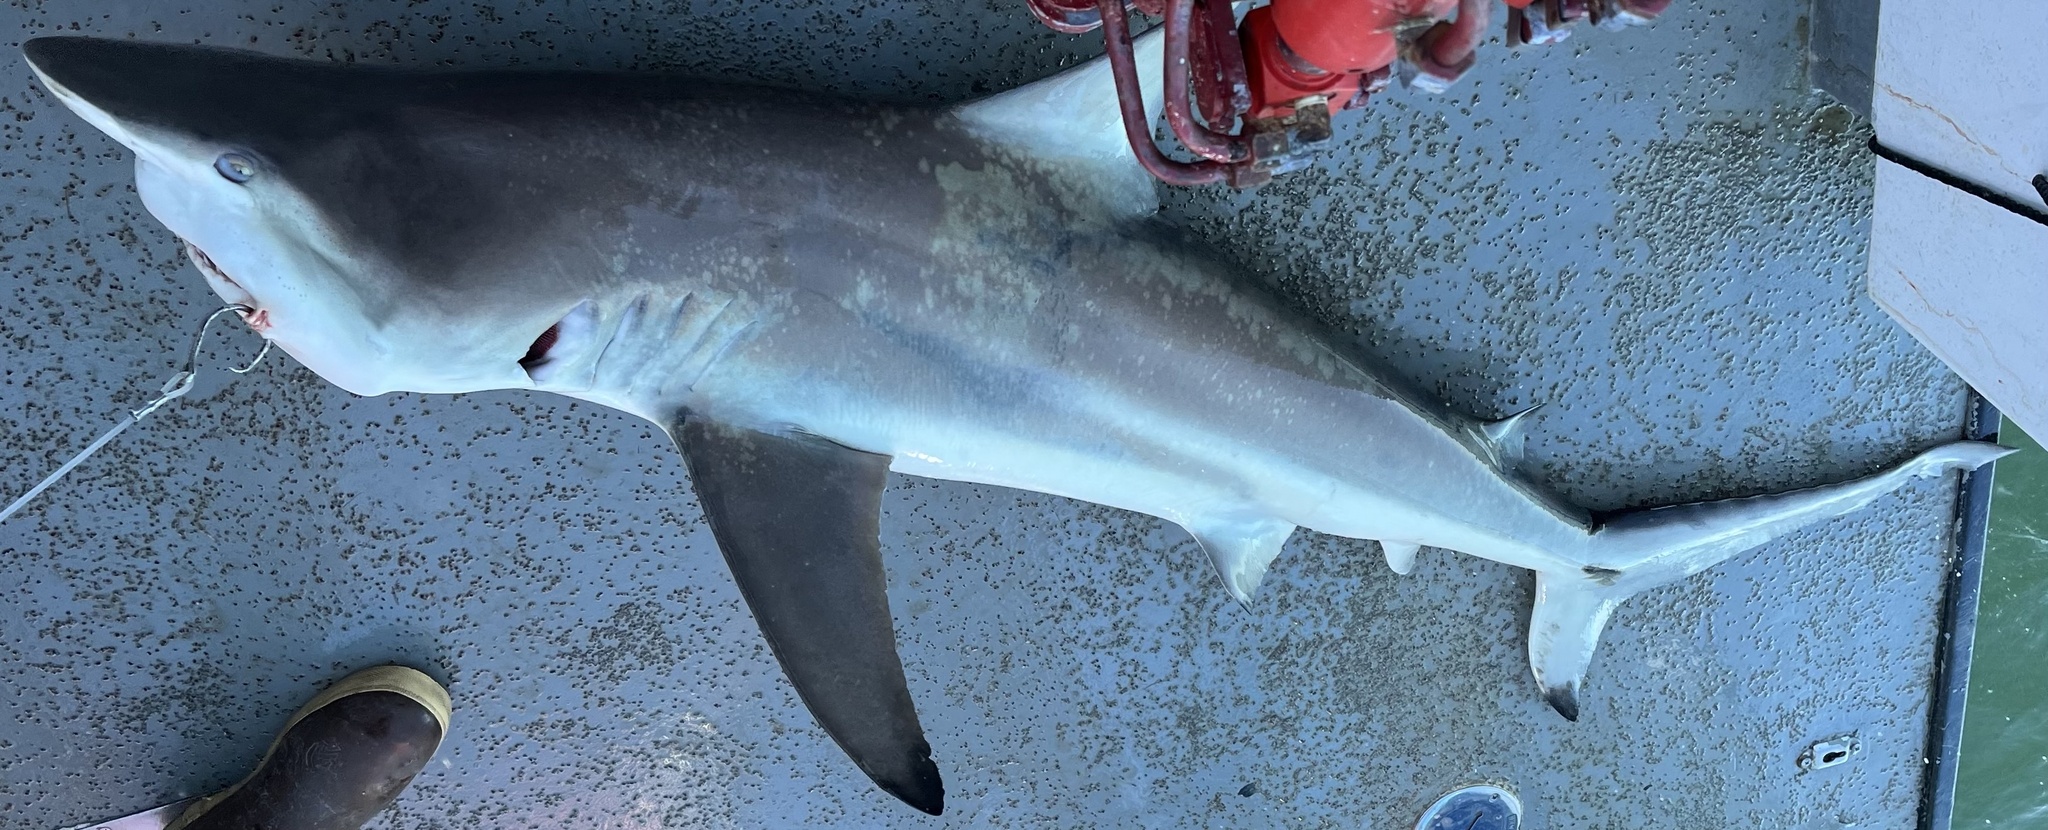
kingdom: Animalia
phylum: Chordata
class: Elasmobranchii
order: Carcharhiniformes
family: Carcharhinidae
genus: Carcharhinus
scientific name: Carcharhinus limbatus
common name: Blacktip shark
